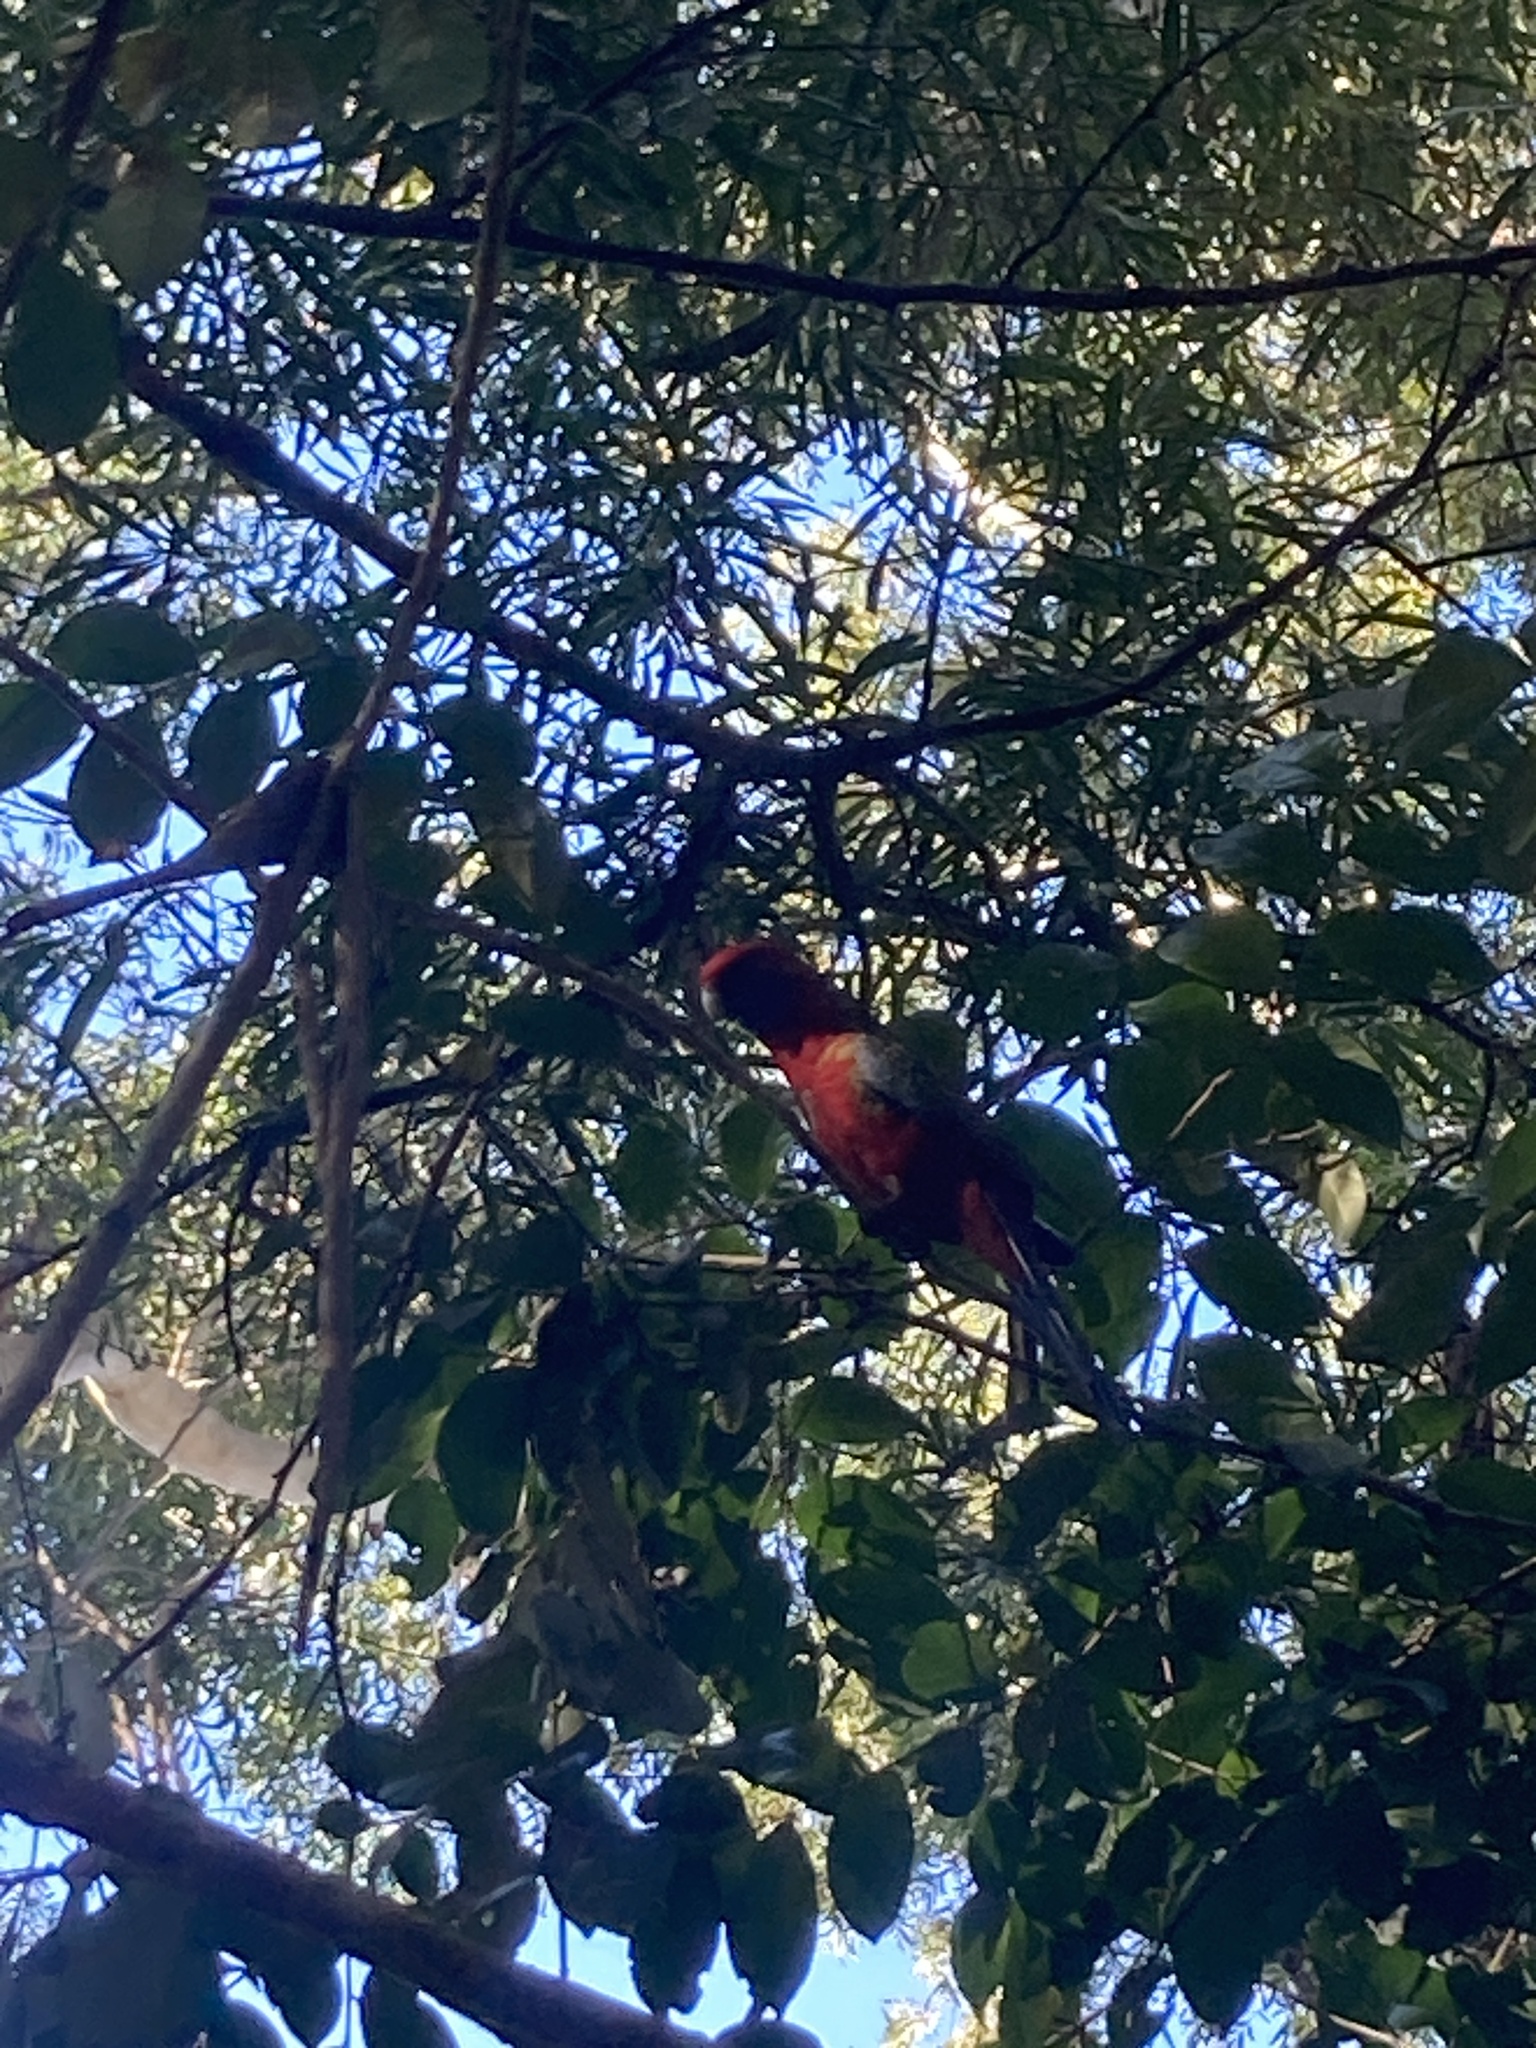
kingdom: Animalia
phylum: Chordata
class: Aves
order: Psittaciformes
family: Psittacidae
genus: Platycercus
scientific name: Platycercus elegans
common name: Crimson rosella
